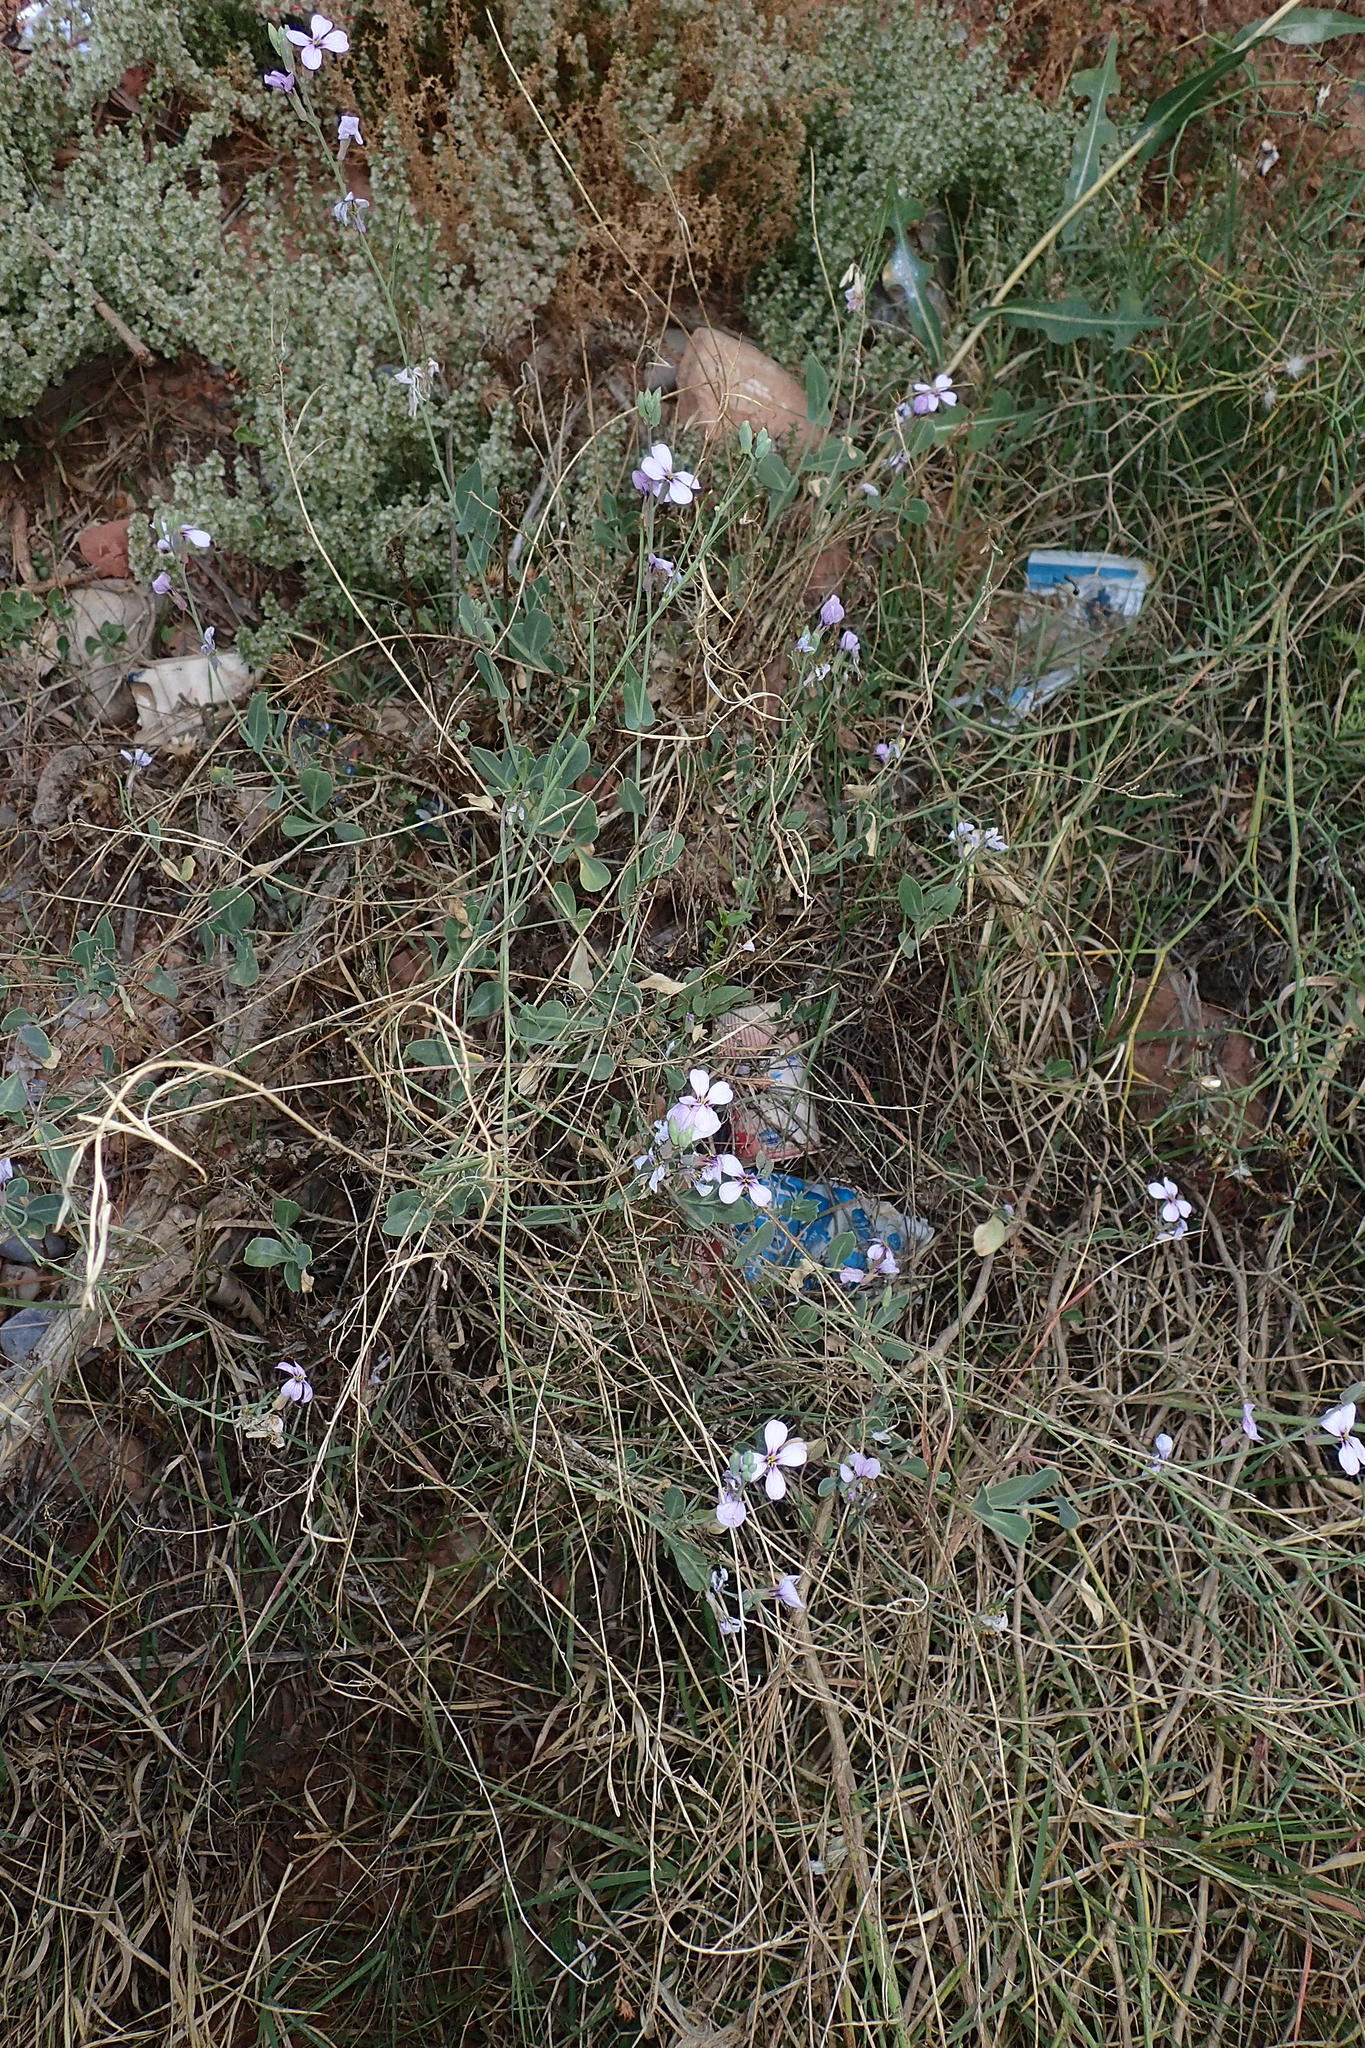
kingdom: Plantae
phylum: Tracheophyta
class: Magnoliopsida
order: Brassicales
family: Brassicaceae
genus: Moricandia
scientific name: Moricandia arvensis
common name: Purple mistress
